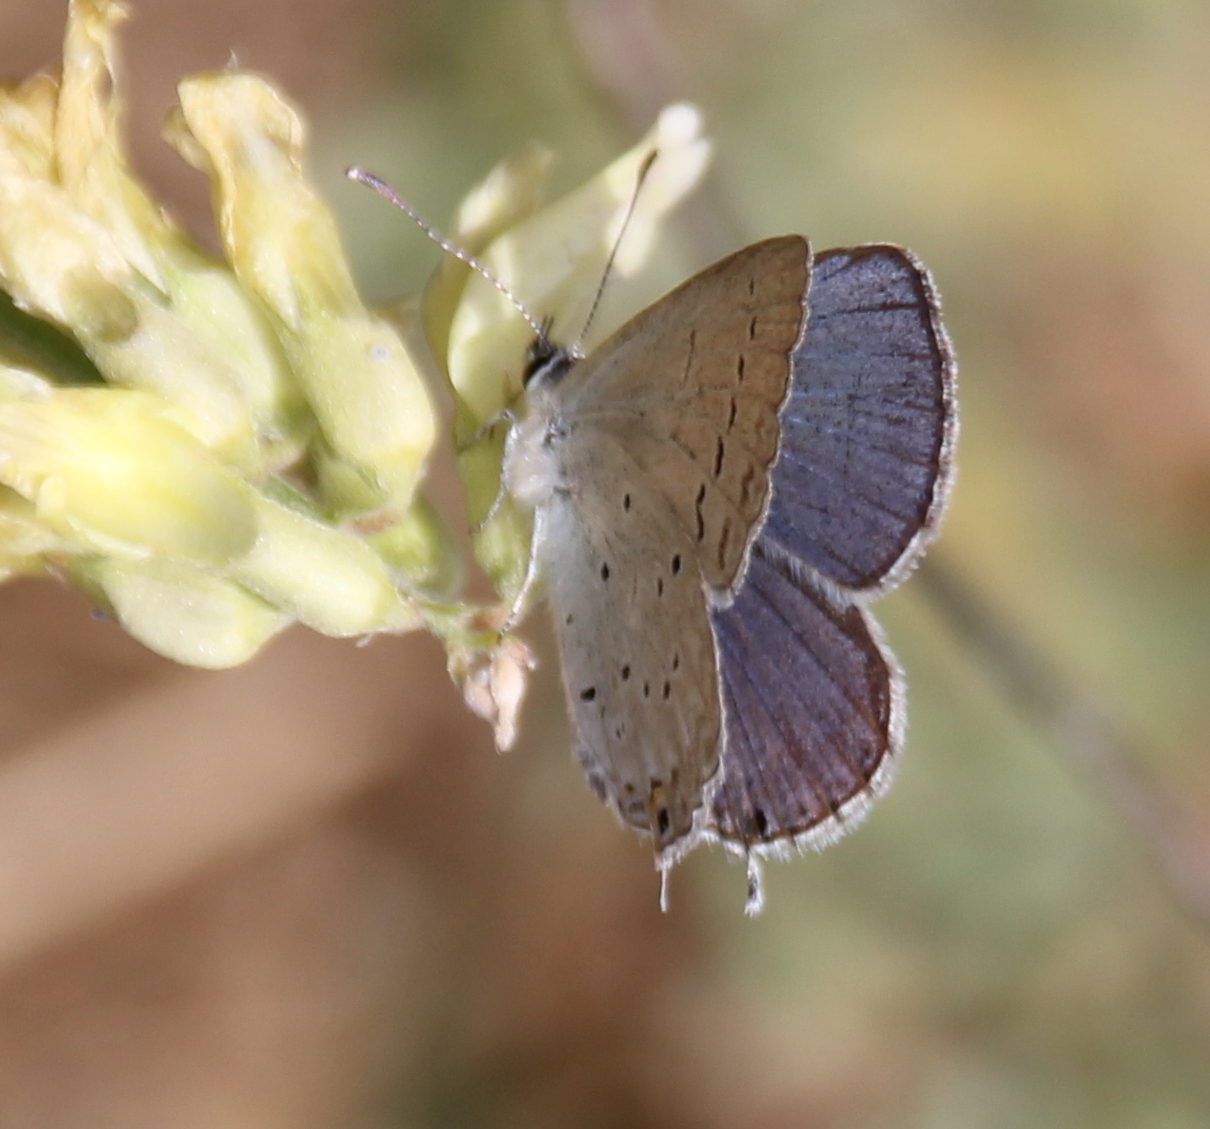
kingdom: Animalia
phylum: Arthropoda
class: Insecta
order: Lepidoptera
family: Lycaenidae
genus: Elkalyce
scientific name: Elkalyce amyntula
